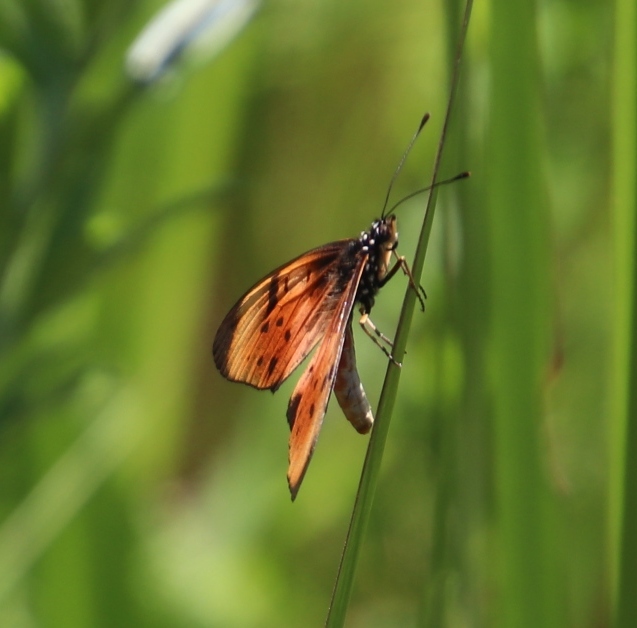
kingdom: Animalia
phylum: Arthropoda
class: Insecta
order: Lepidoptera
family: Nymphalidae
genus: Stephenia
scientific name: Stephenia
